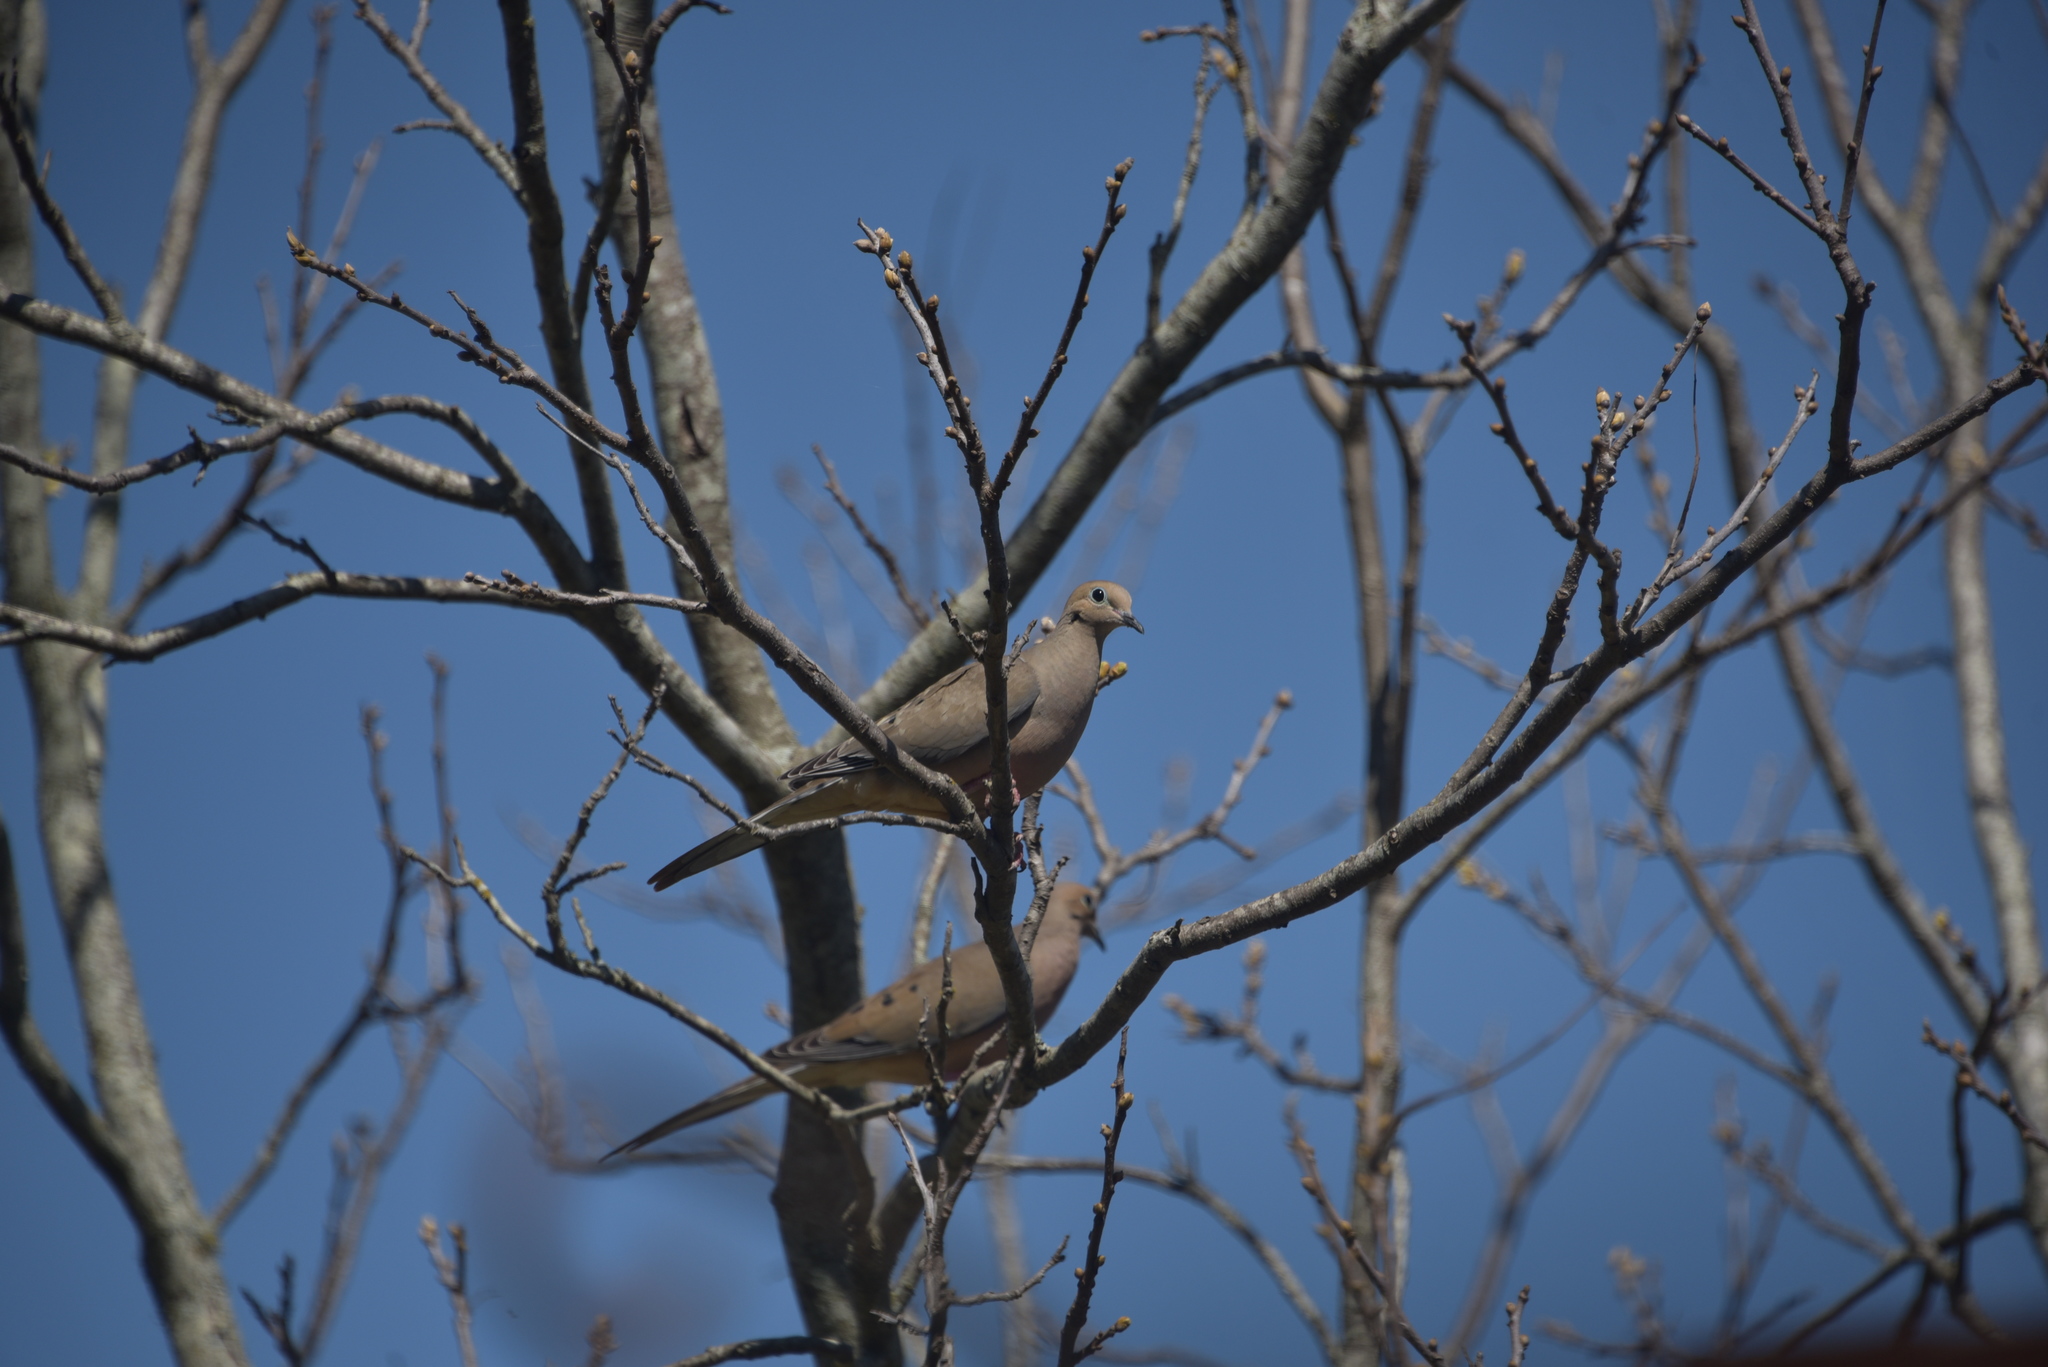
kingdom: Animalia
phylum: Chordata
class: Aves
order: Columbiformes
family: Columbidae
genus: Zenaida
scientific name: Zenaida macroura
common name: Mourning dove
